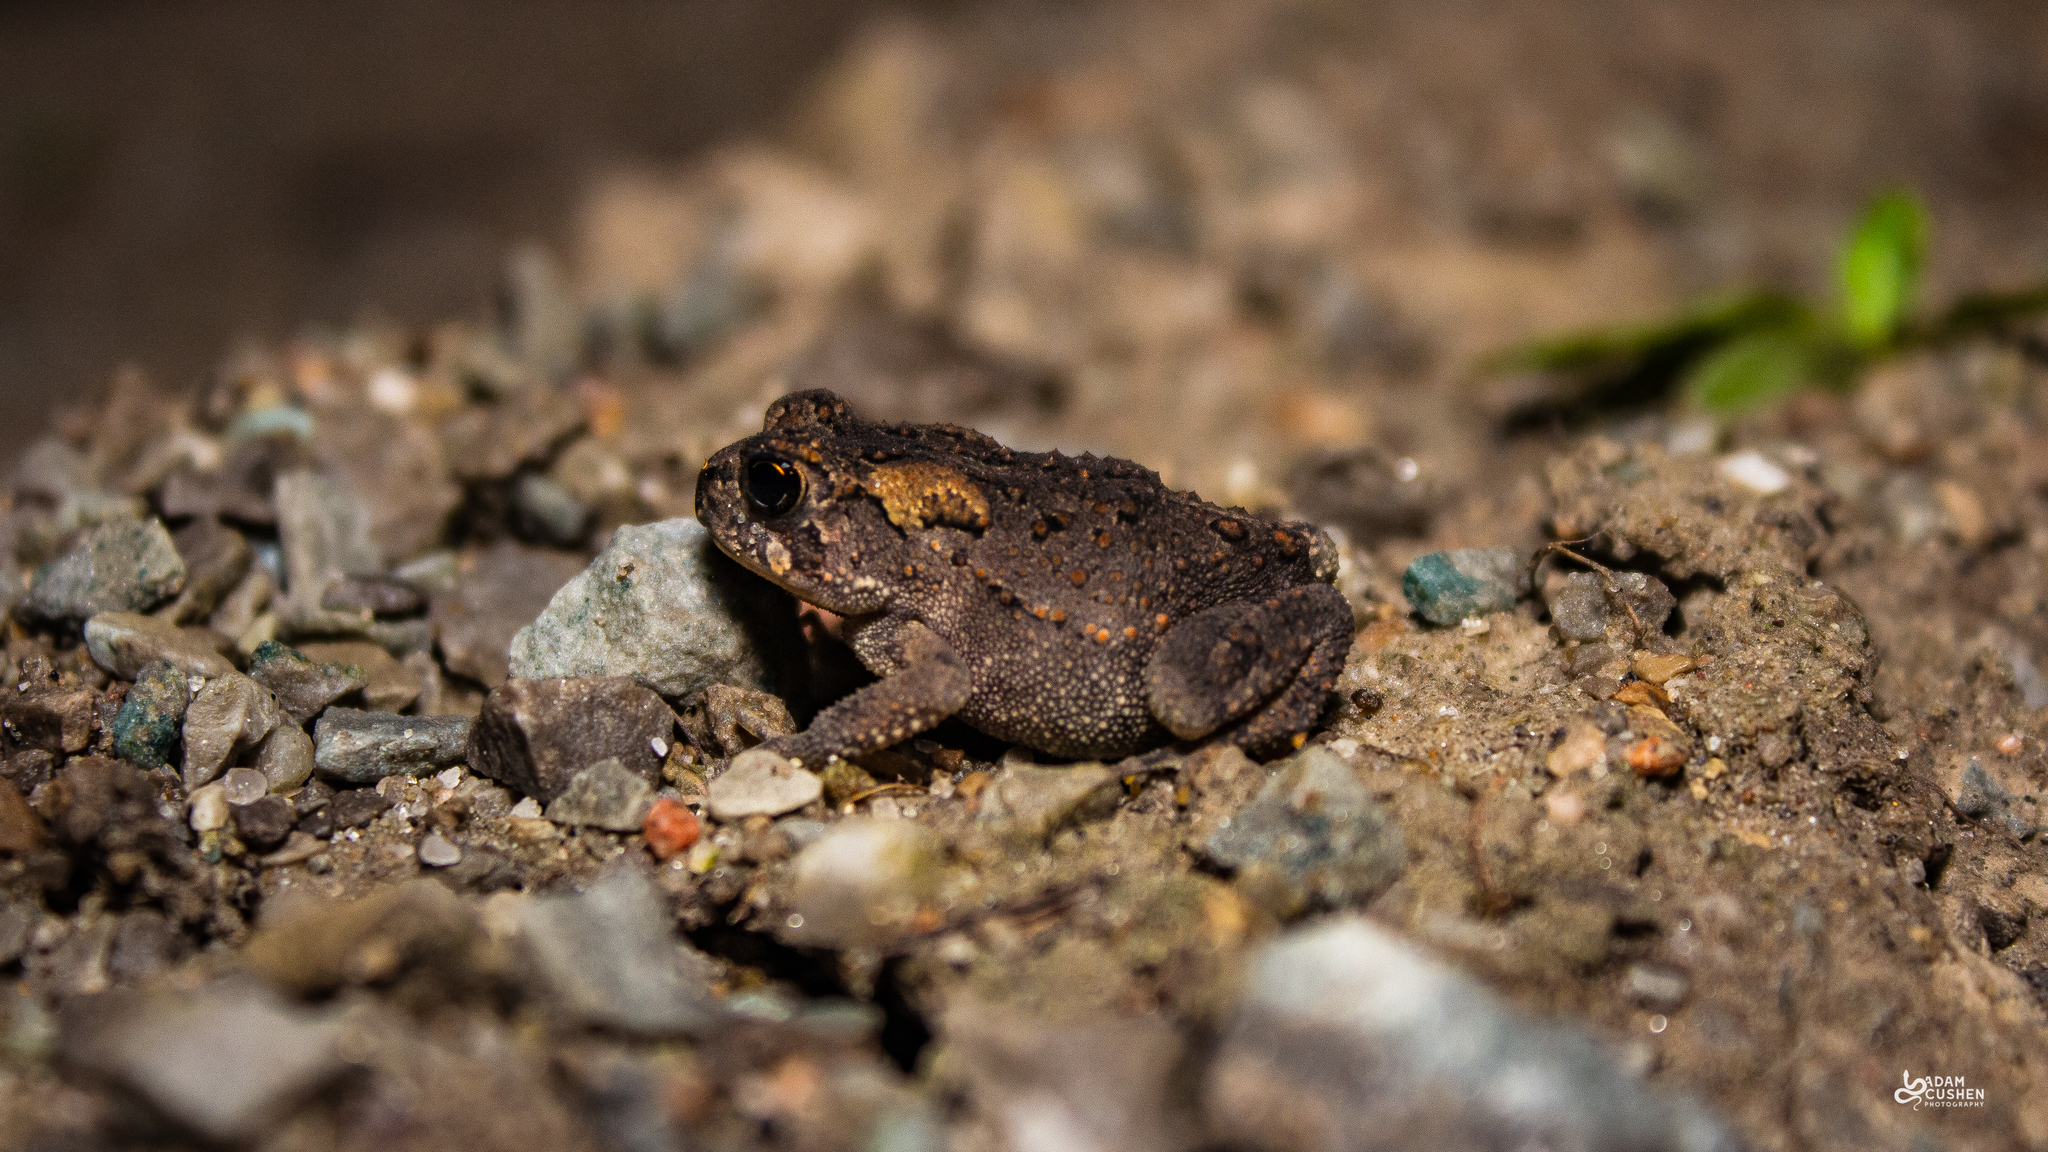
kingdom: Animalia
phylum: Chordata
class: Amphibia
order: Anura
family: Bufonidae
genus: Anaxyrus
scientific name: Anaxyrus americanus
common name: American toad
